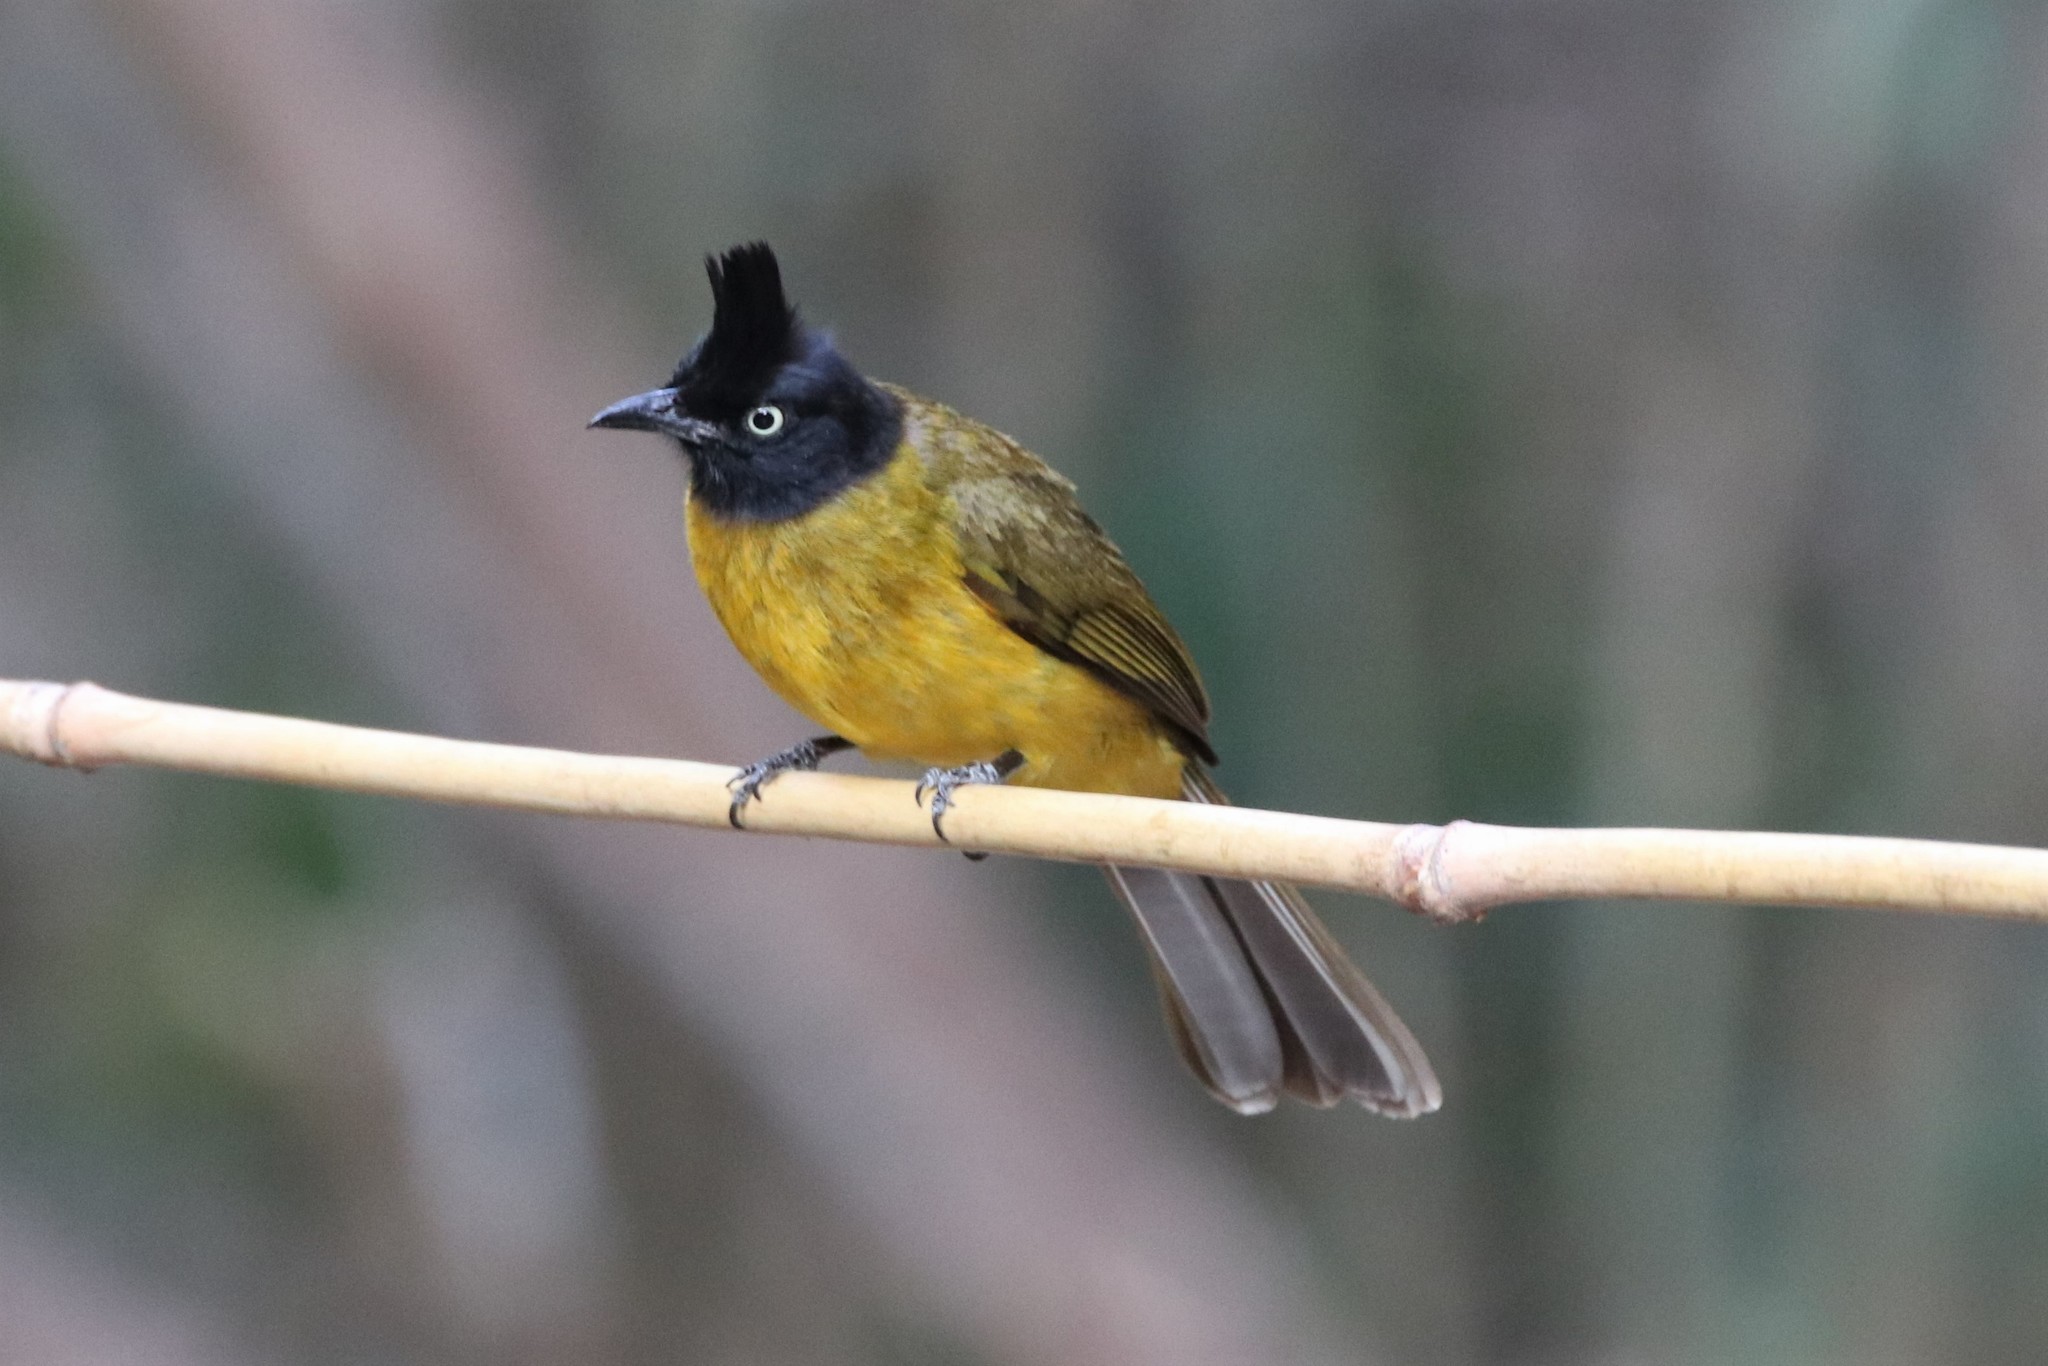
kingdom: Animalia
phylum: Chordata
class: Aves
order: Passeriformes
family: Pycnonotidae
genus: Pycnonotus
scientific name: Pycnonotus flaviventris
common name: Black-crested bulbul
